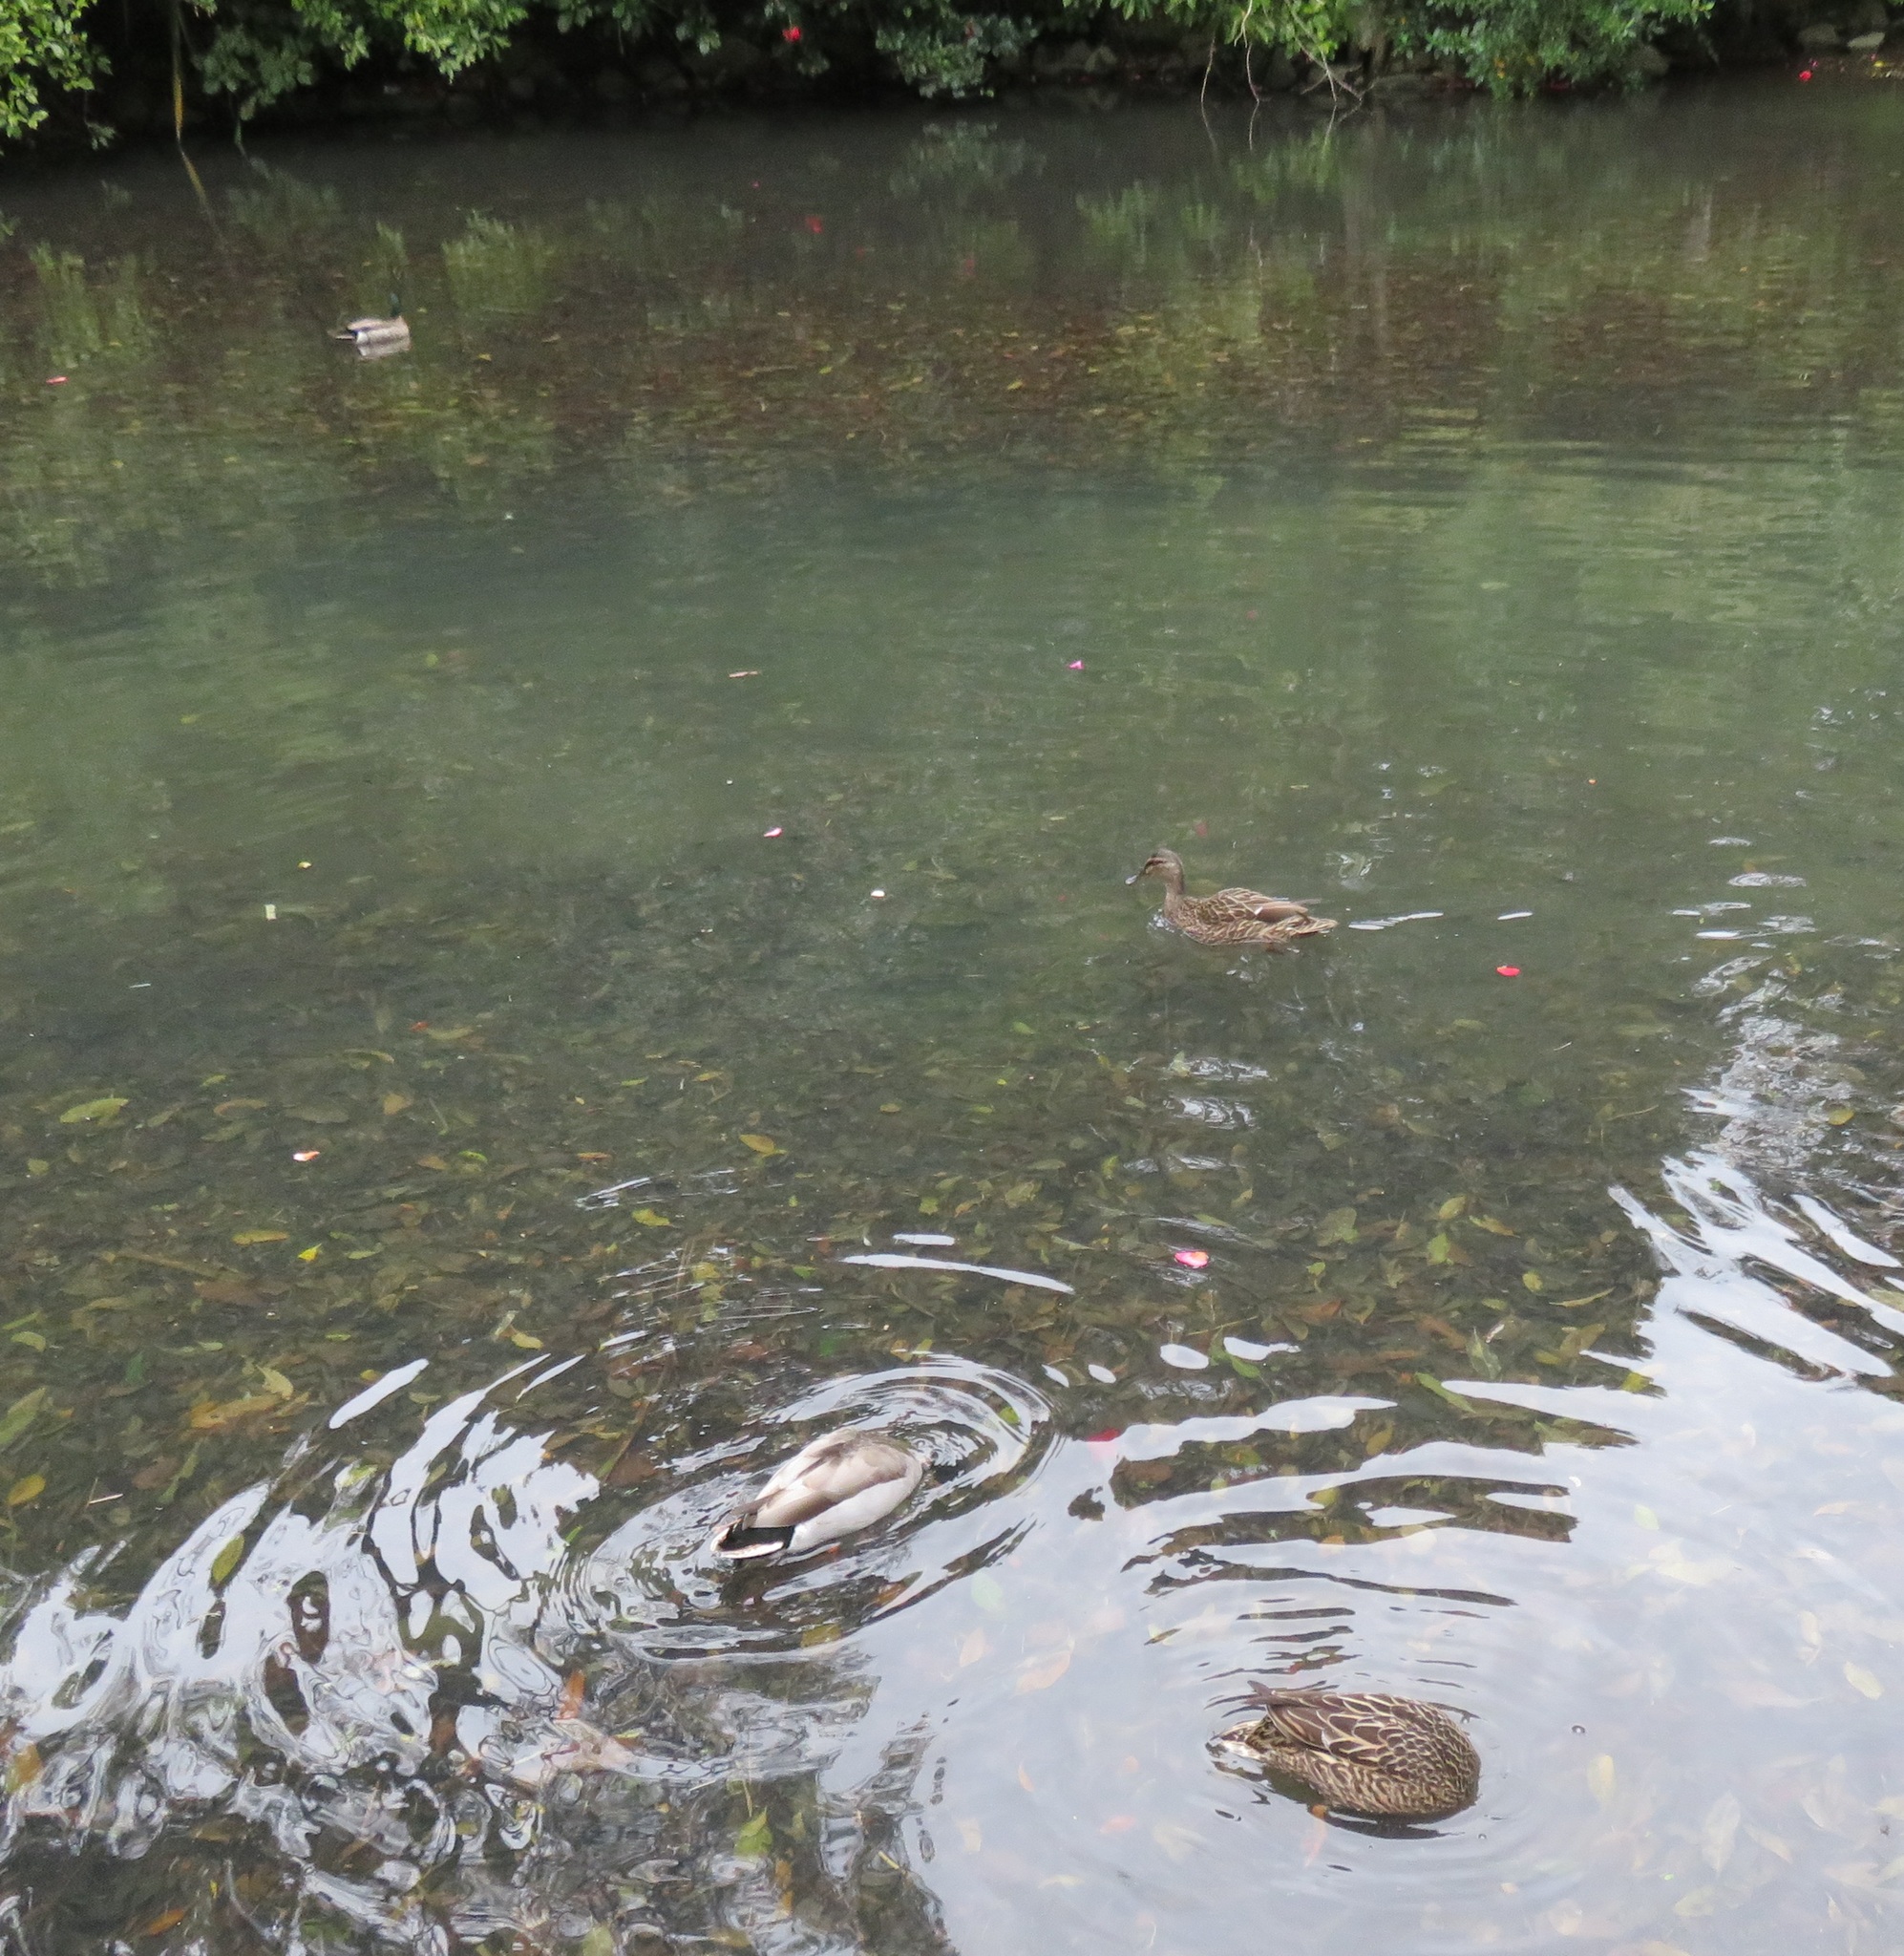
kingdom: Animalia
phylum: Chordata
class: Aves
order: Anseriformes
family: Anatidae
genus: Anas
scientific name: Anas
